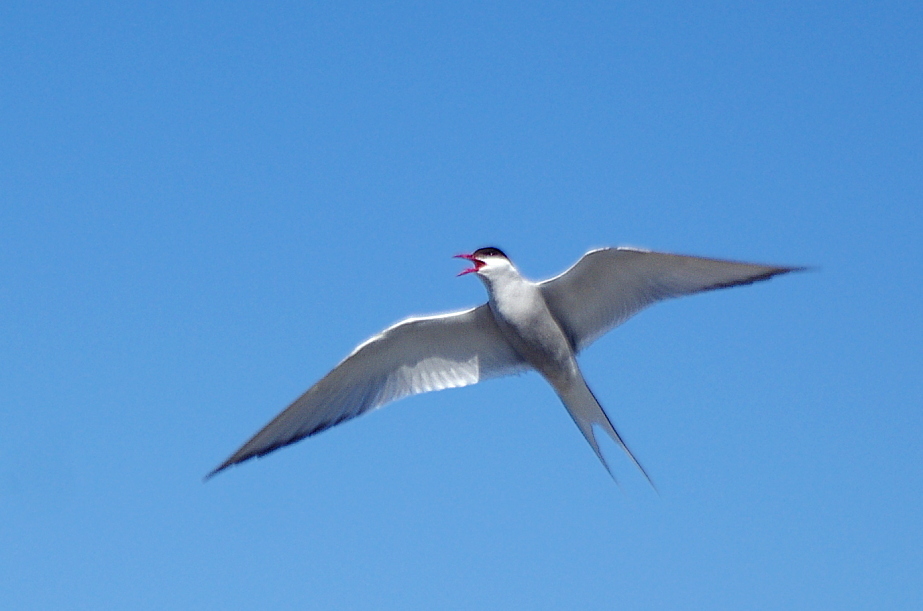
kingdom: Animalia
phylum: Chordata
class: Aves
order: Charadriiformes
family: Laridae
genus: Sterna
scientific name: Sterna paradisaea
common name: Arctic tern
